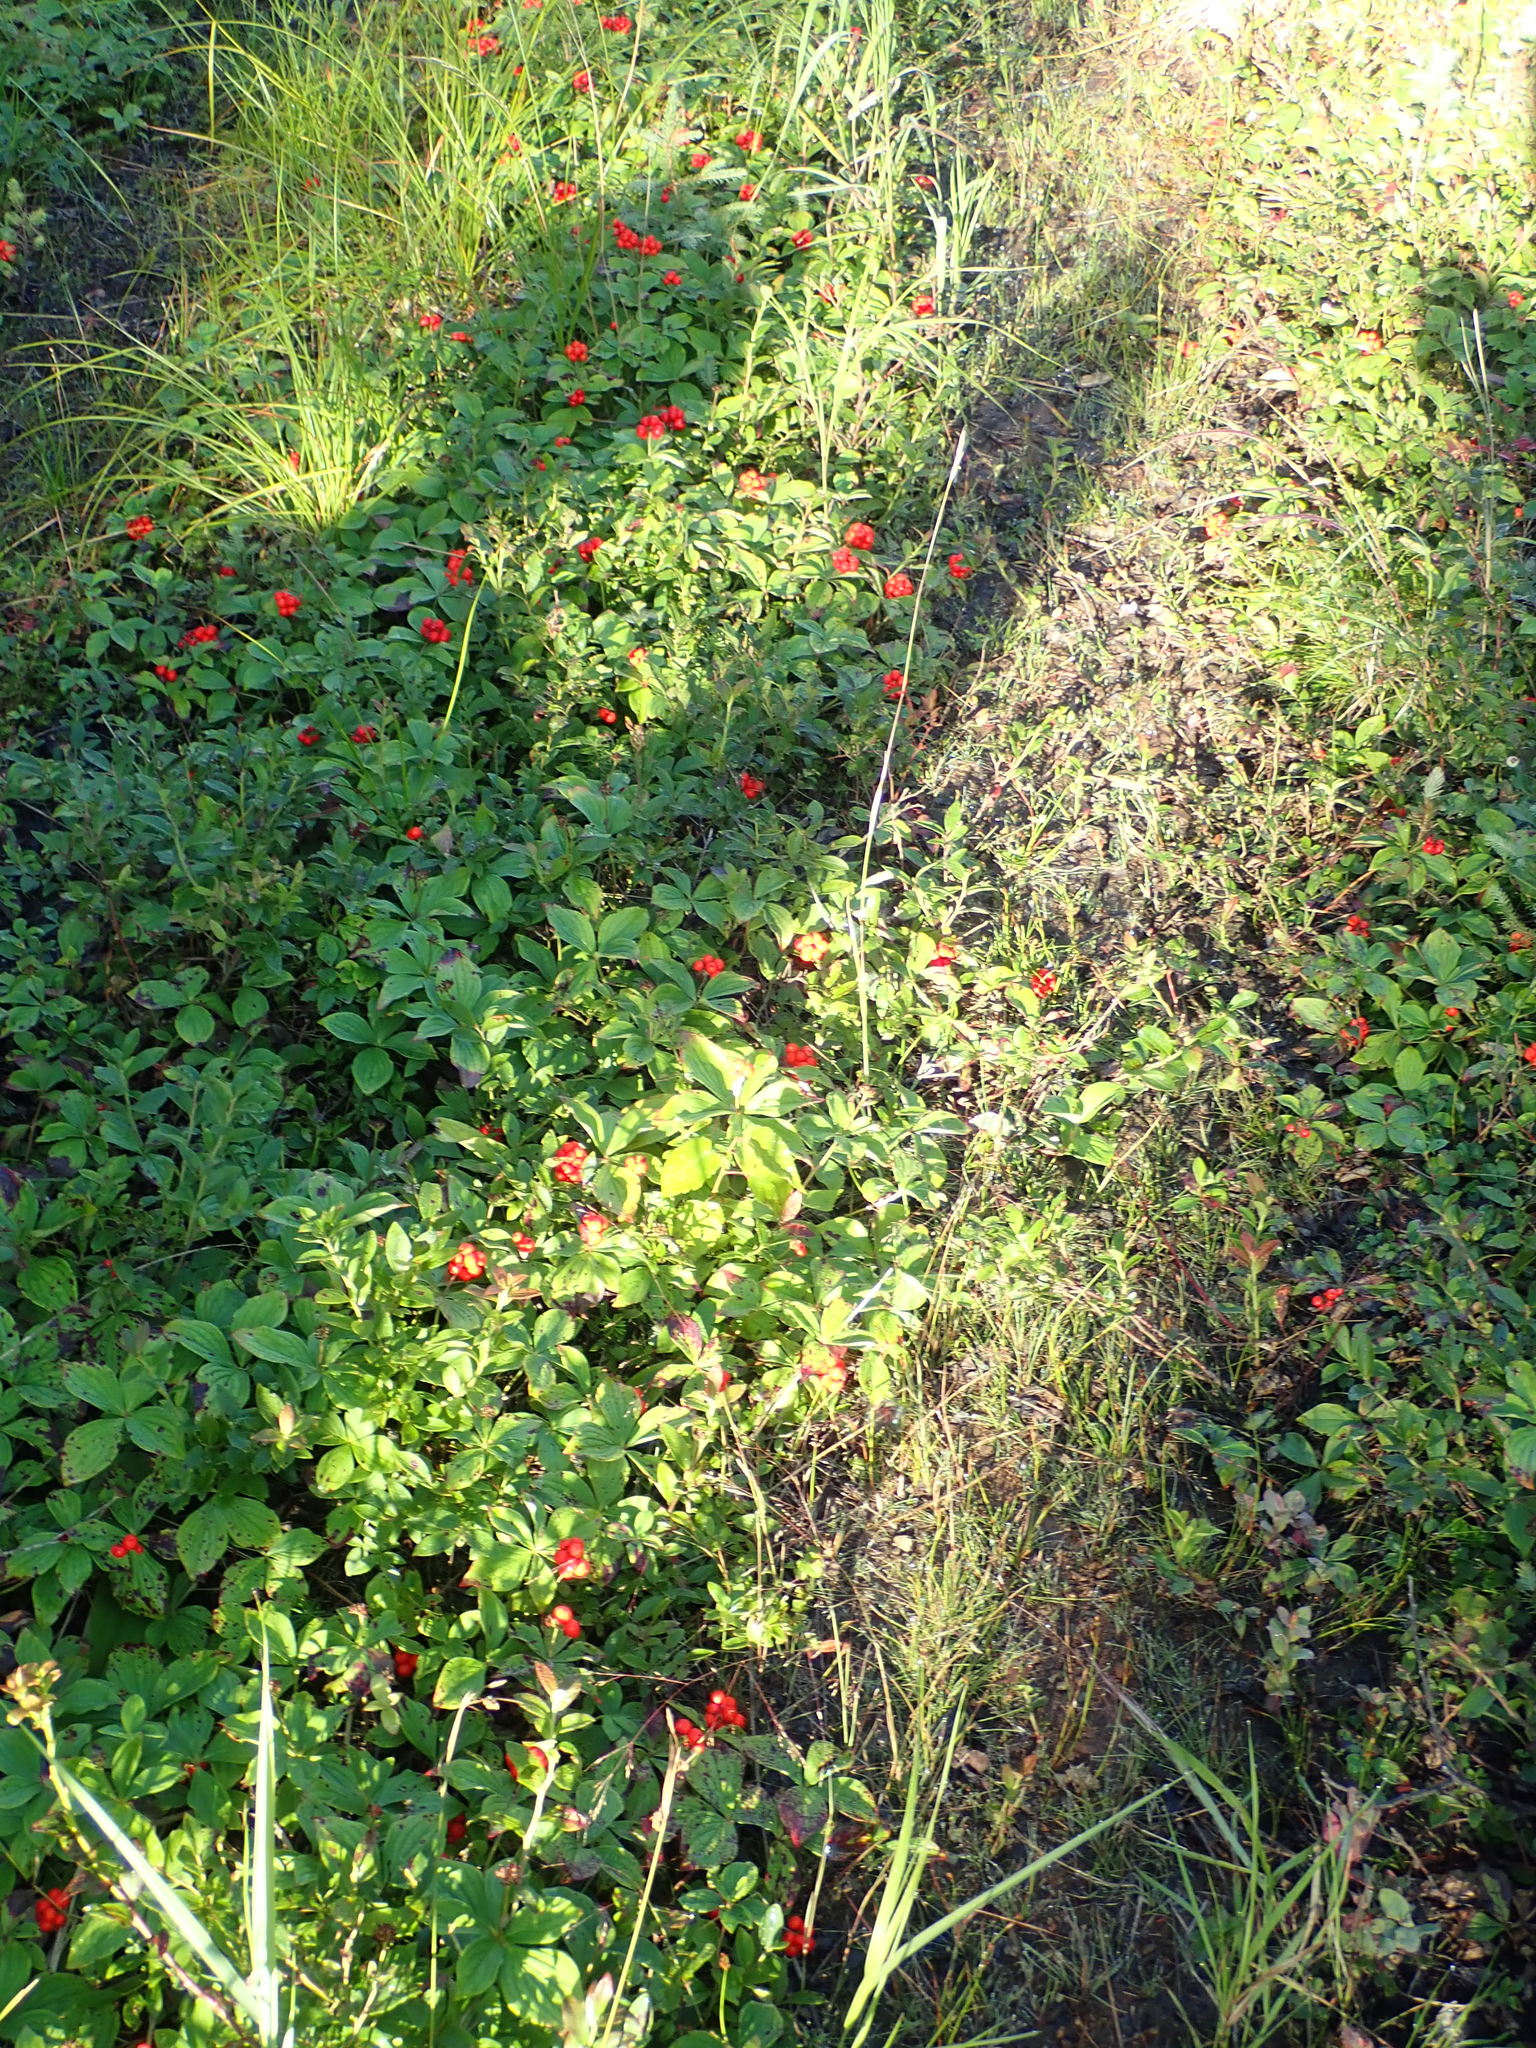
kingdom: Plantae
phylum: Tracheophyta
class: Magnoliopsida
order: Cornales
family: Cornaceae
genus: Cornus
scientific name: Cornus canadensis
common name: Creeping dogwood
